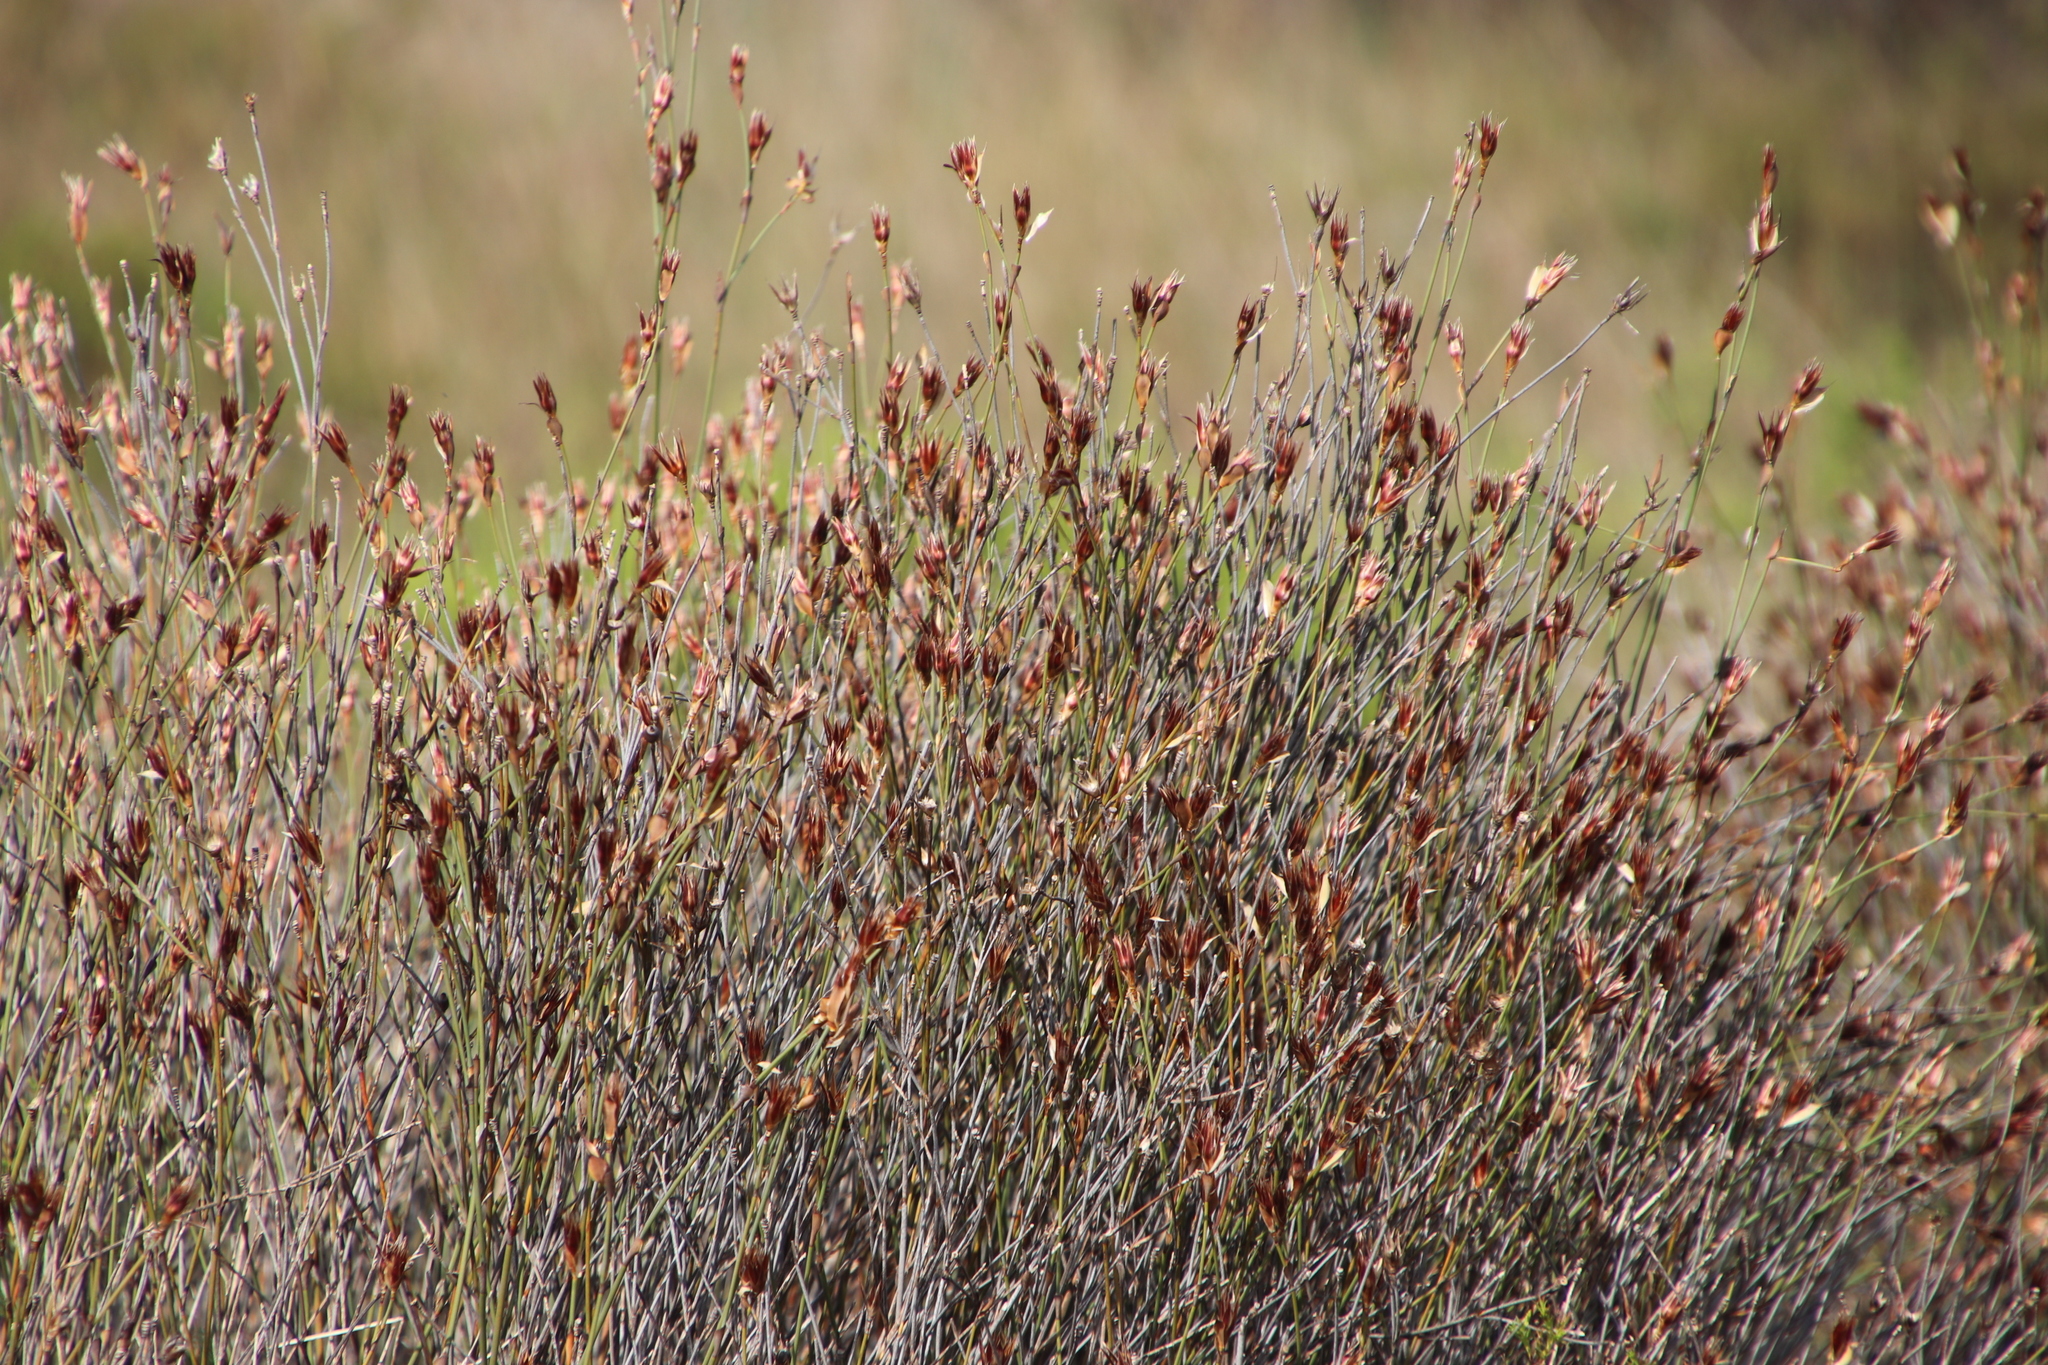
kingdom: Plantae
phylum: Tracheophyta
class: Liliopsida
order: Poales
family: Restionaceae
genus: Willdenowia
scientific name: Willdenowia incurvata
